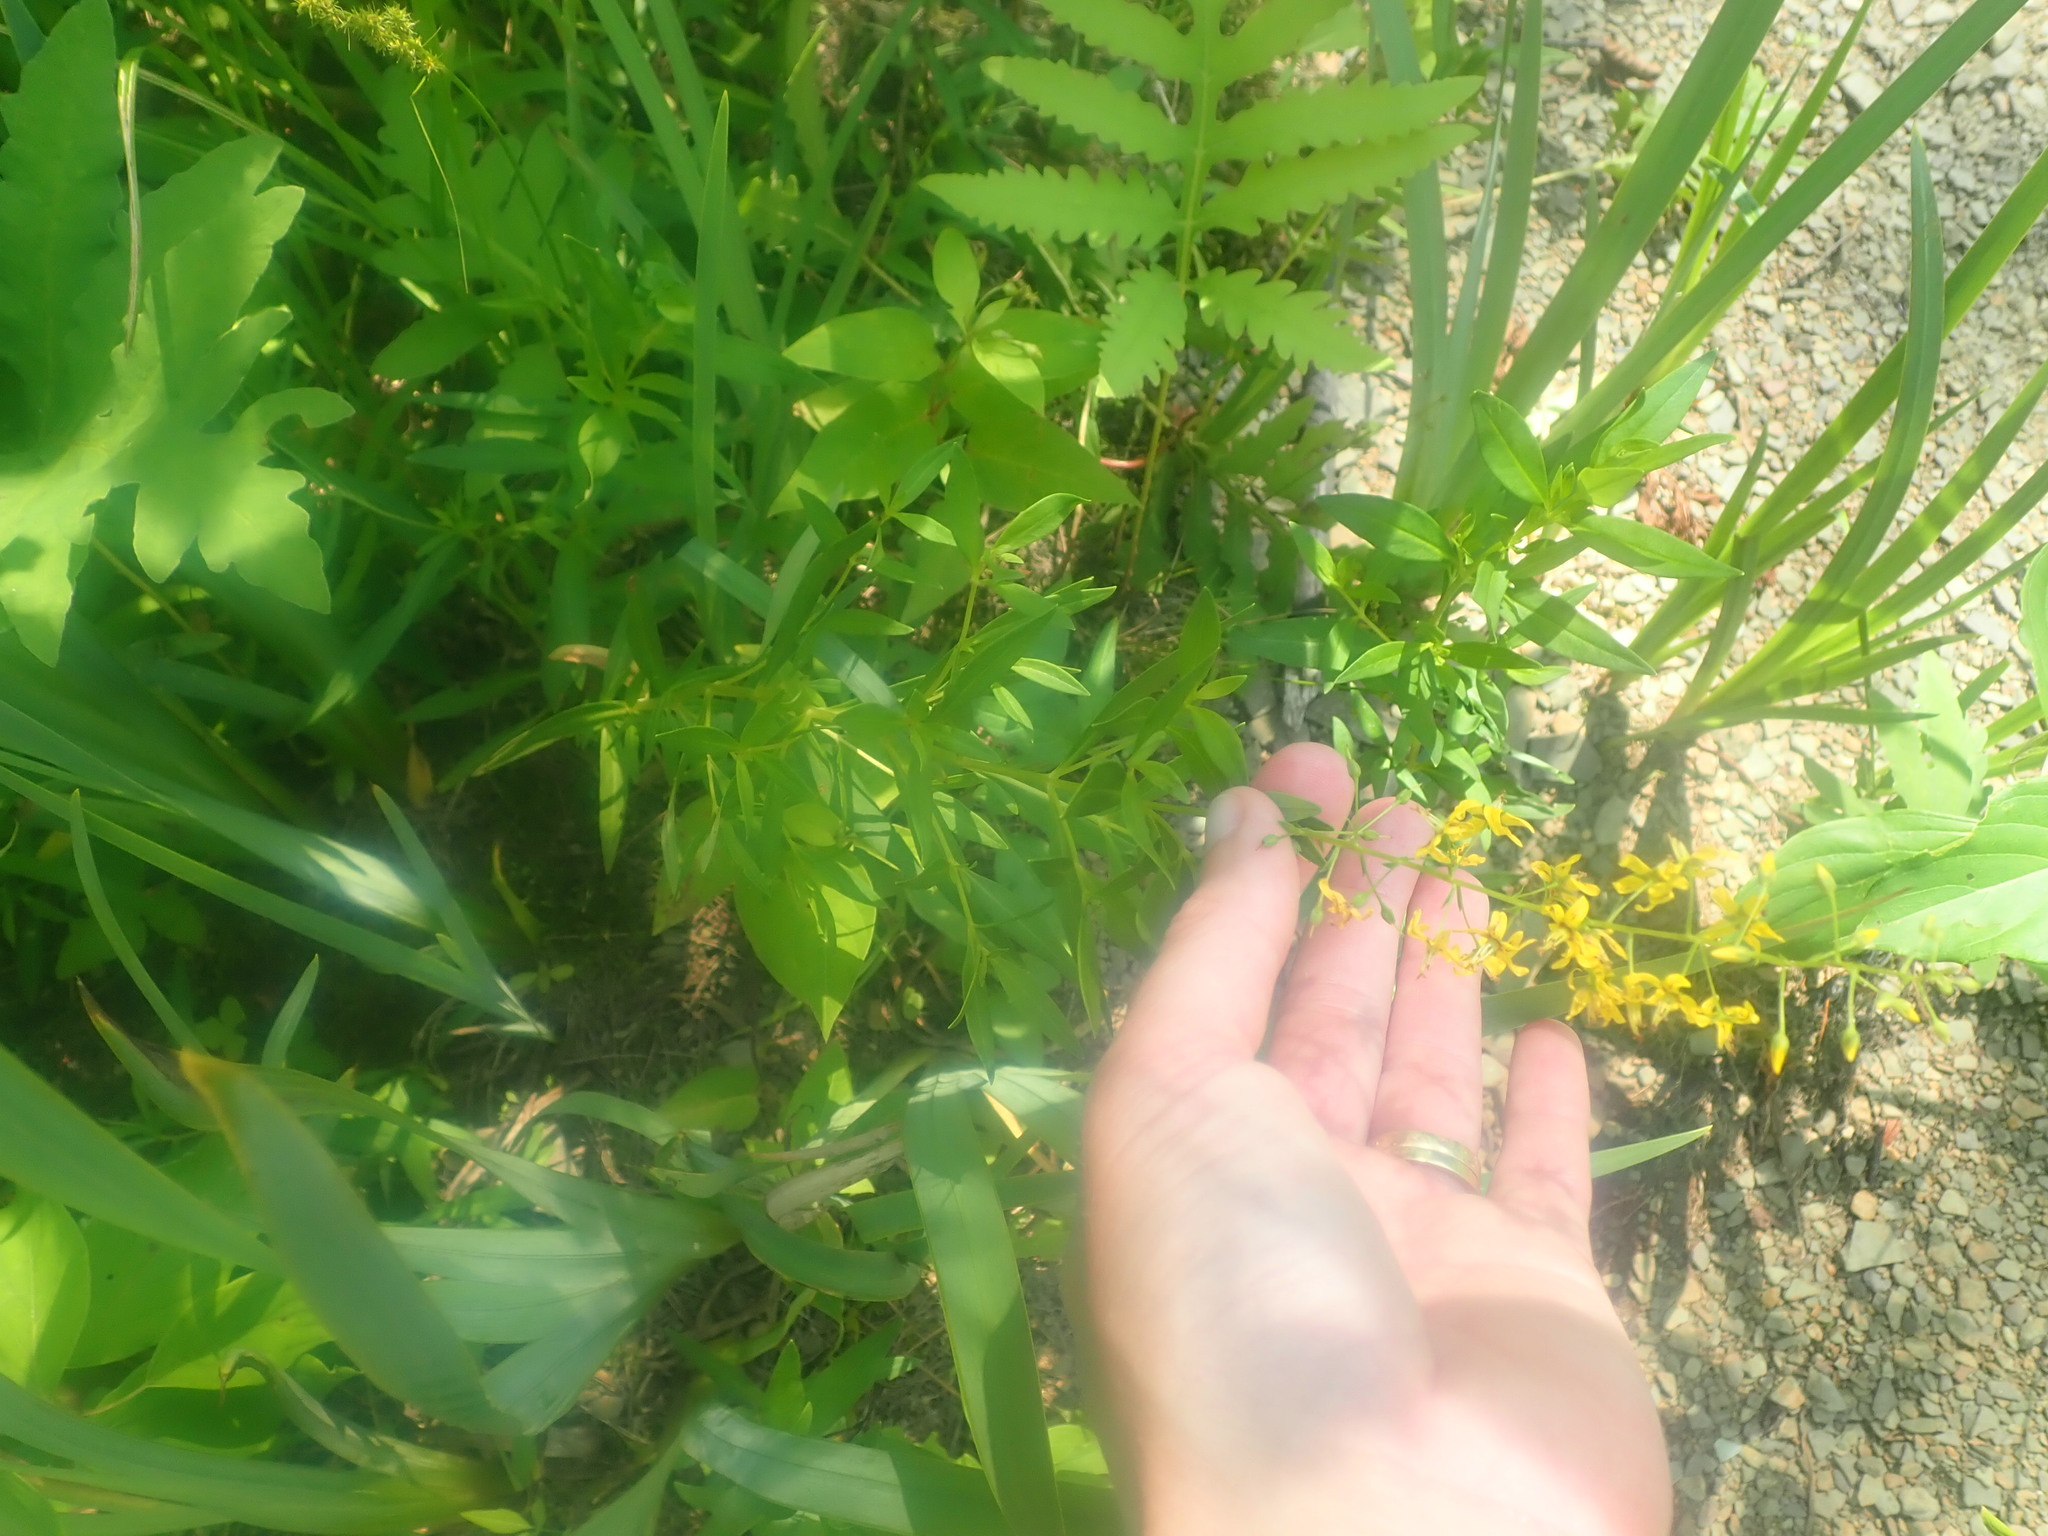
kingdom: Plantae
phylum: Tracheophyta
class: Magnoliopsida
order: Ericales
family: Primulaceae
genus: Lysimachia
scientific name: Lysimachia terrestris
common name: Lake loosestrife
